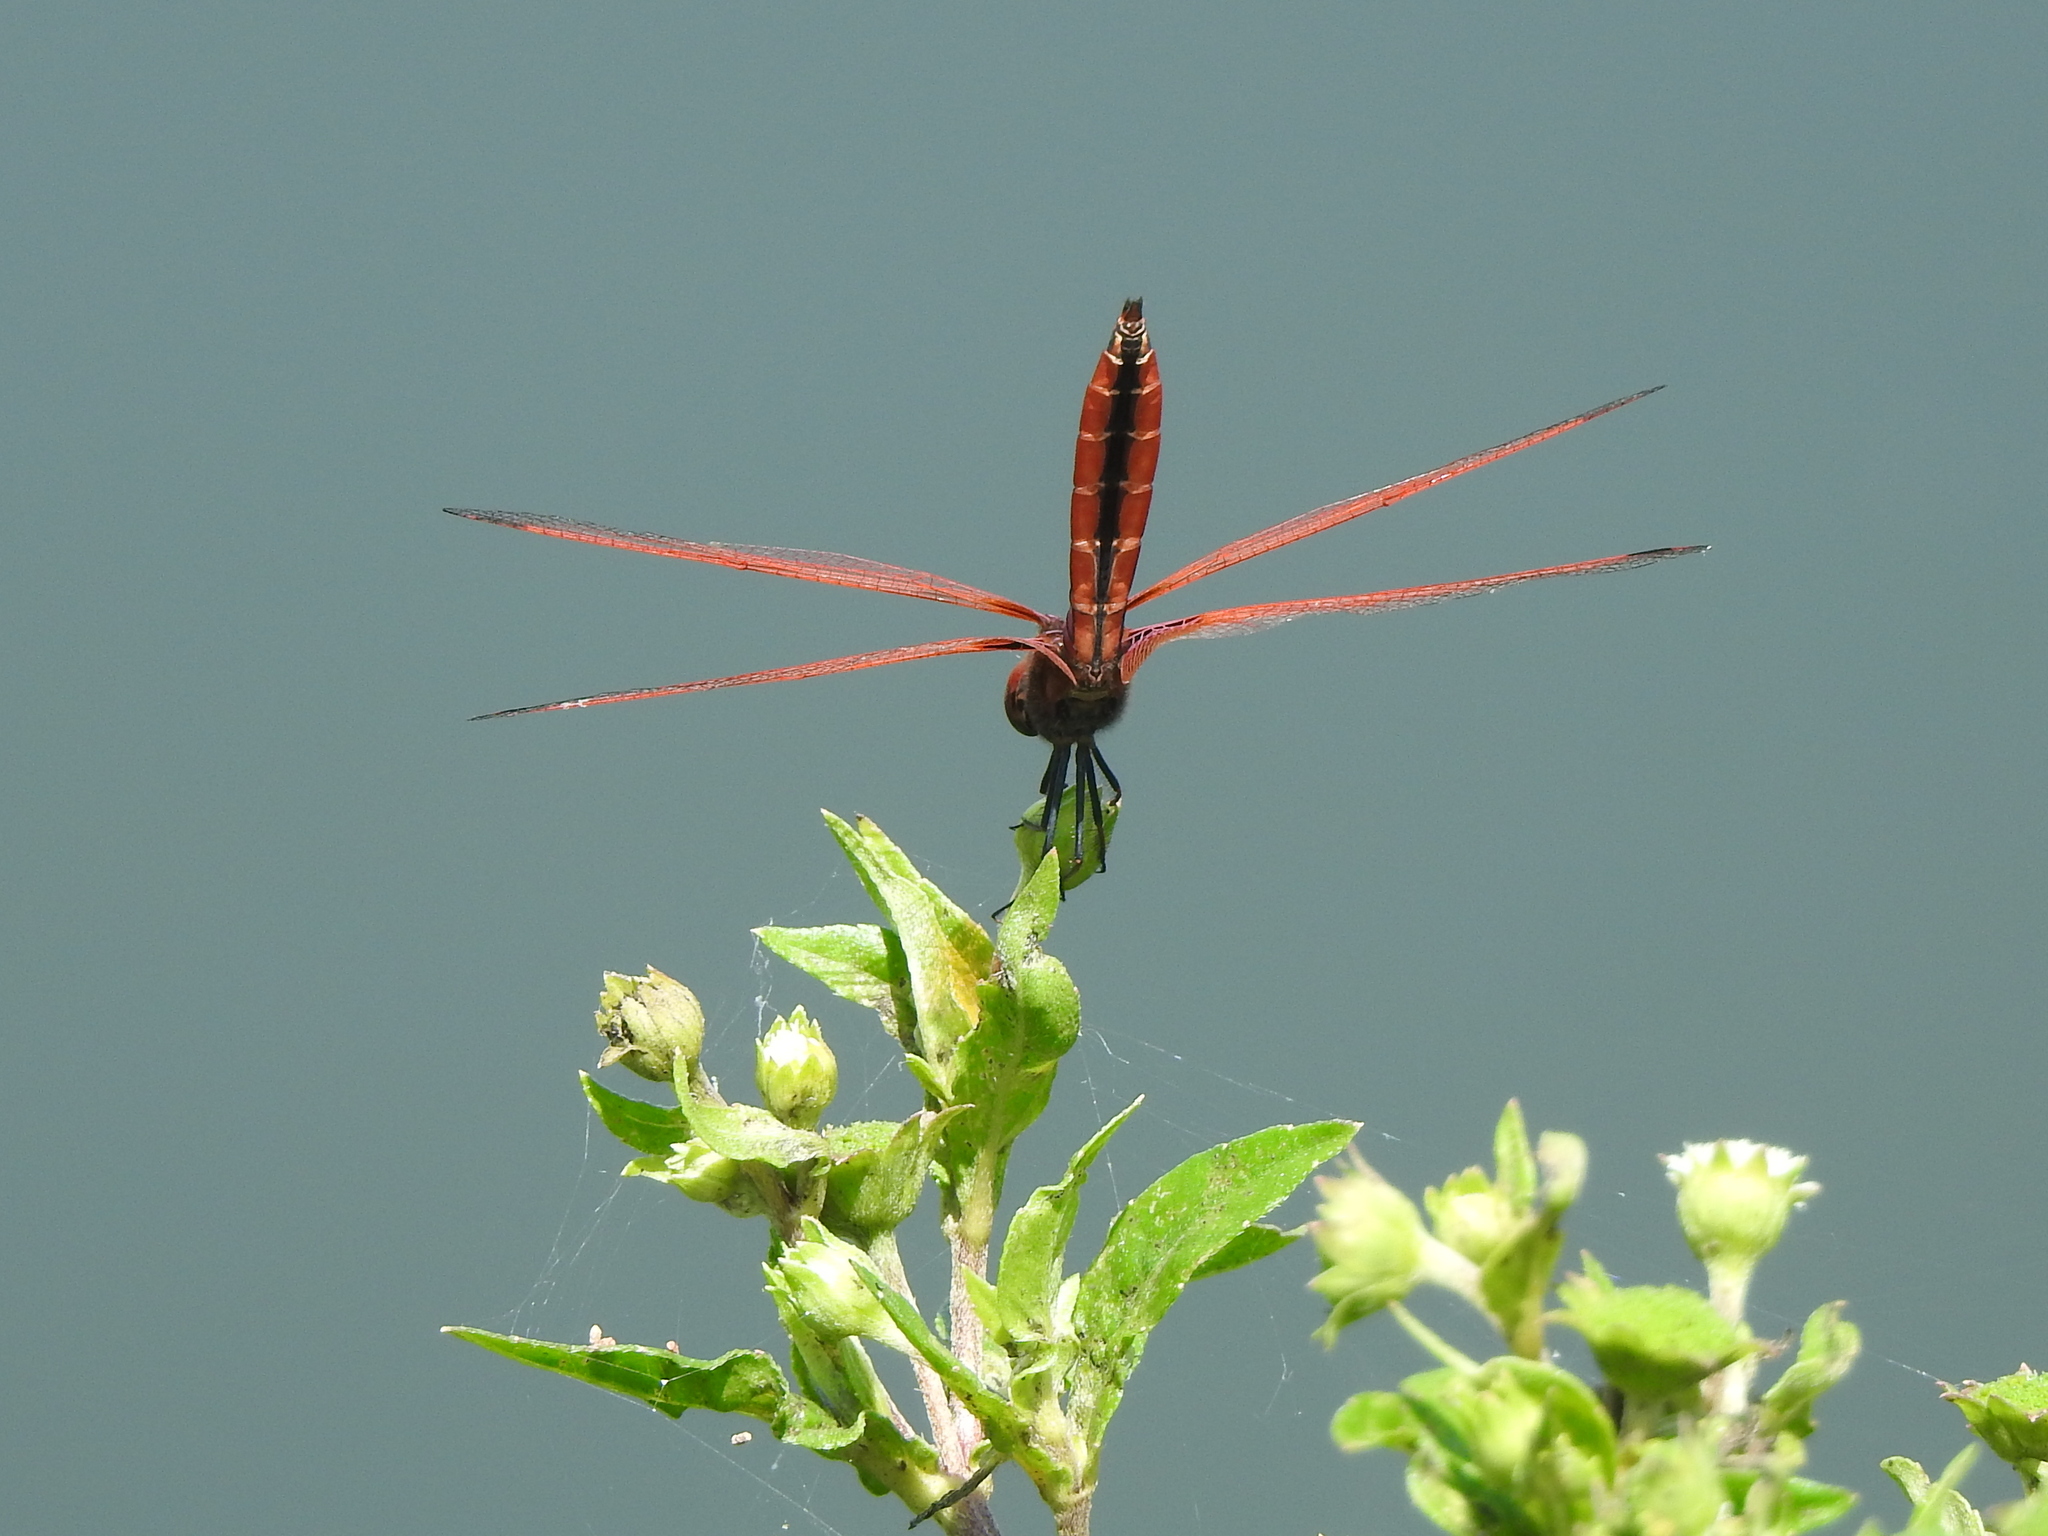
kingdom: Animalia
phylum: Arthropoda
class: Insecta
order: Odonata
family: Libellulidae
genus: Trithemis
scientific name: Trithemis aurora
